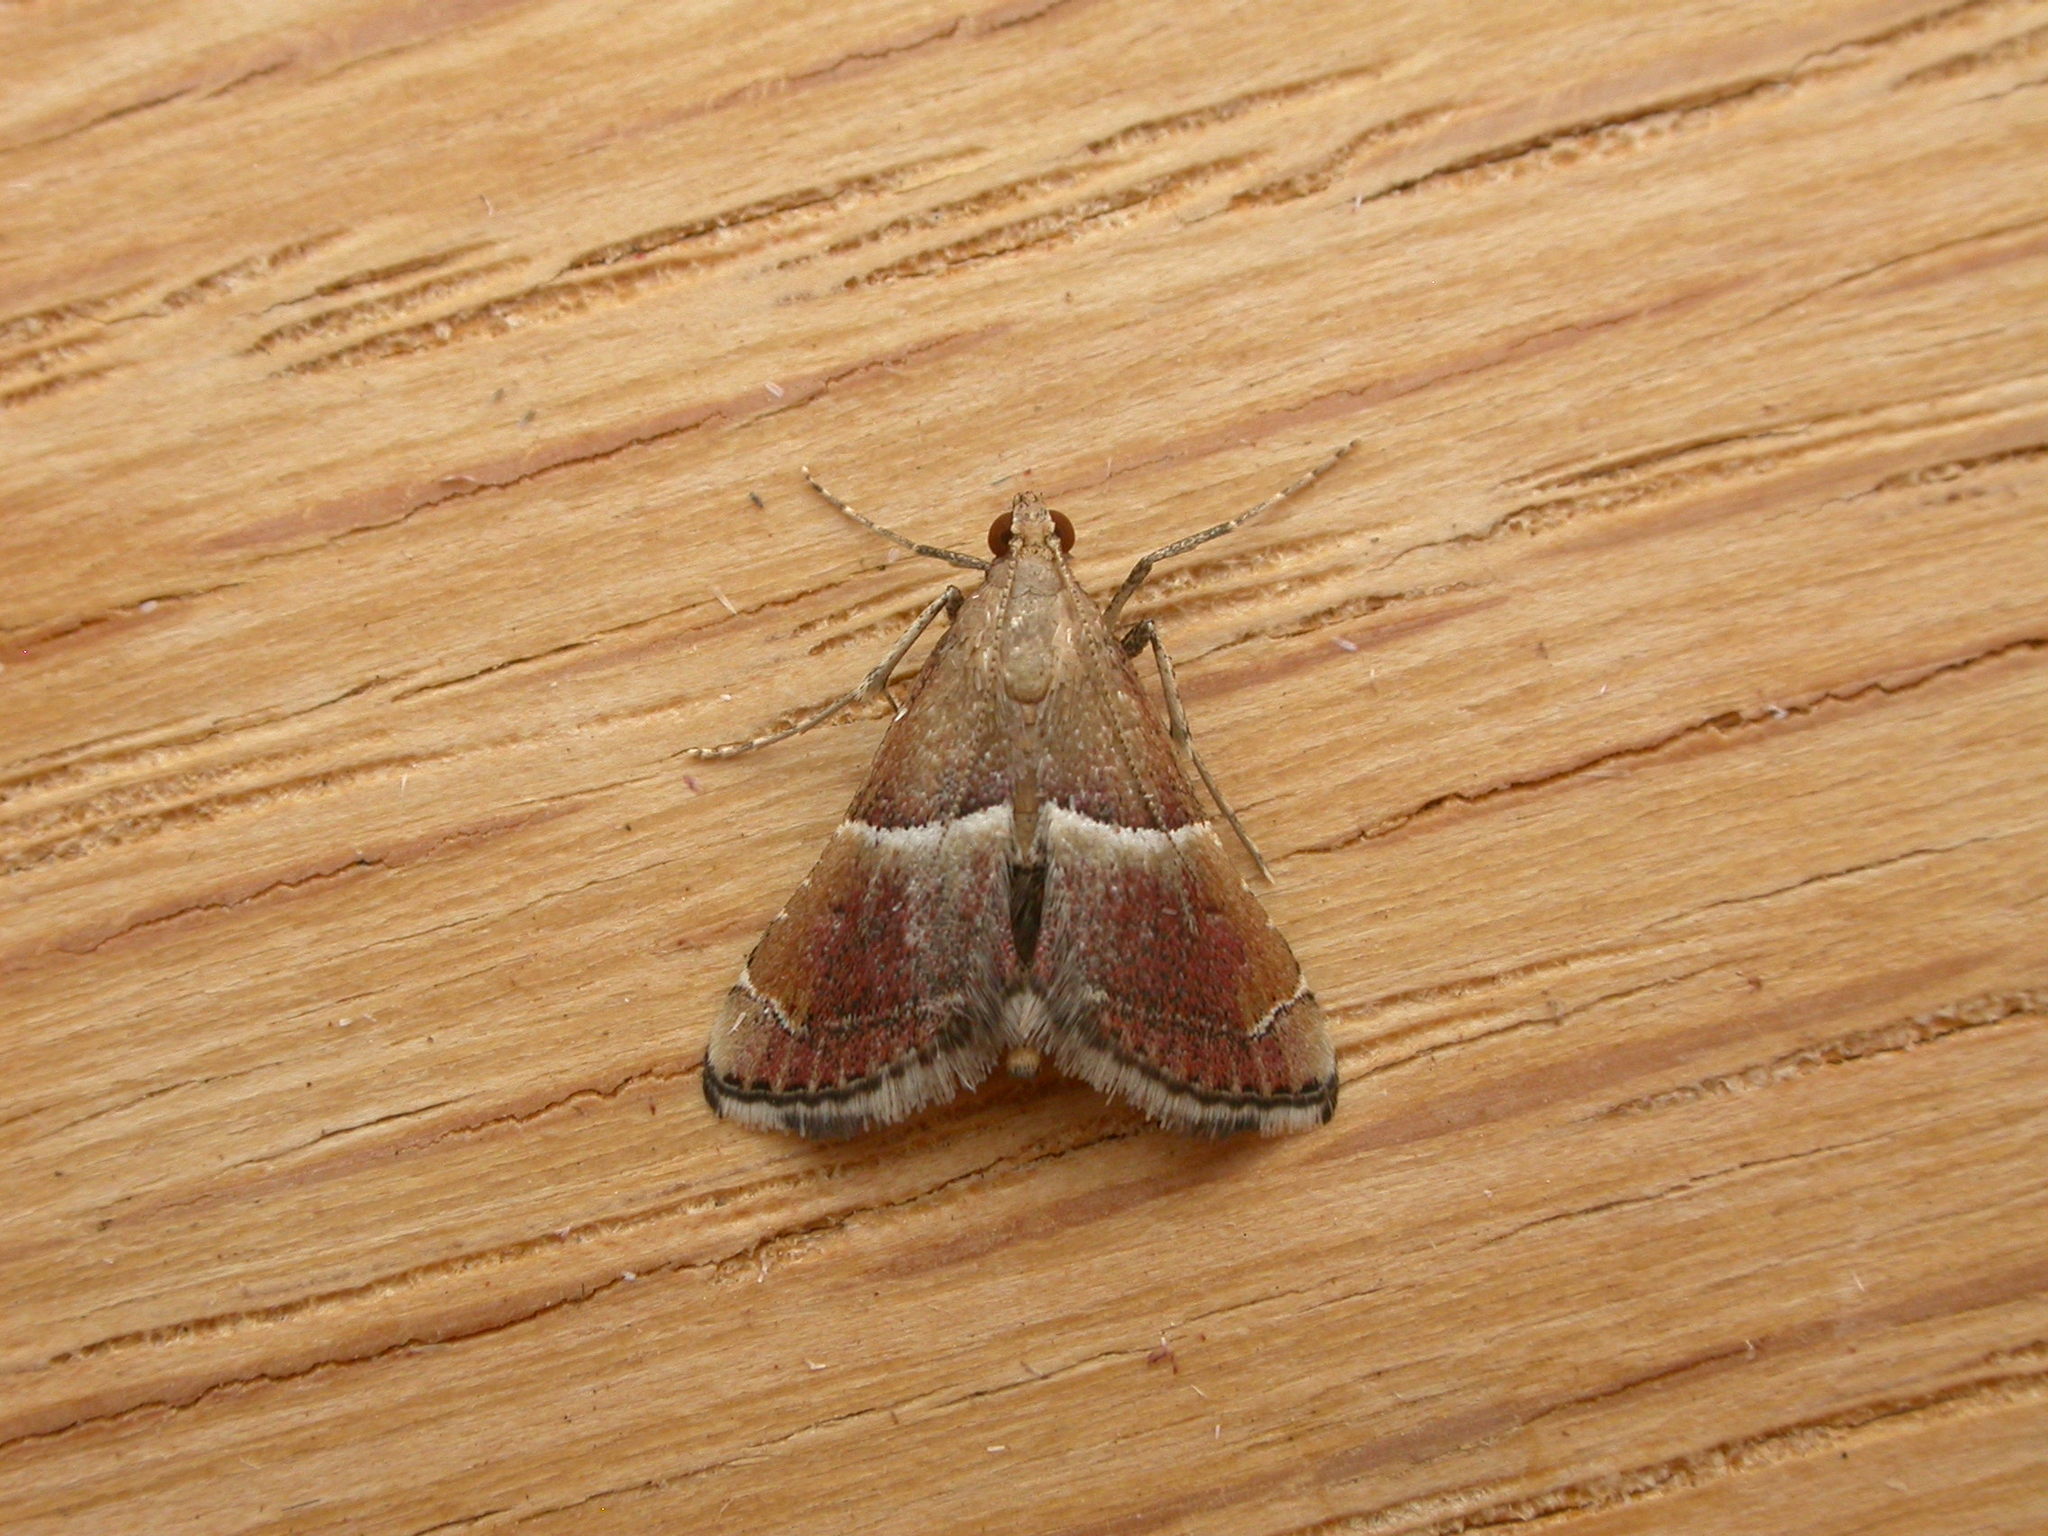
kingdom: Animalia
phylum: Arthropoda
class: Insecta
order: Lepidoptera
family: Pyralidae
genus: Persicoptera
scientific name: Persicoptera compsopa
